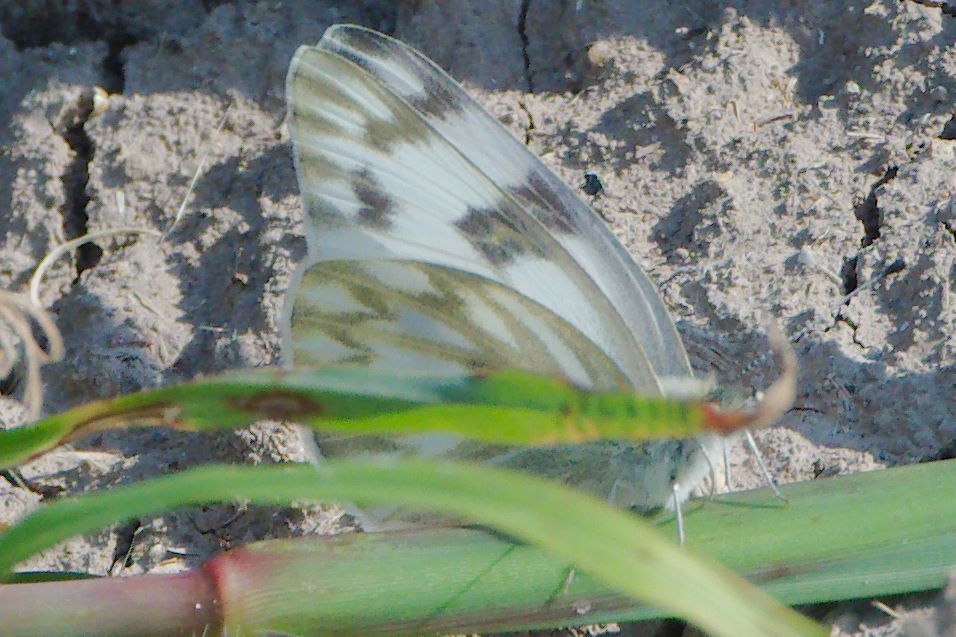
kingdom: Animalia
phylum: Arthropoda
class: Insecta
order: Lepidoptera
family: Pieridae
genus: Pontia
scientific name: Pontia protodice
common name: Checkered white
